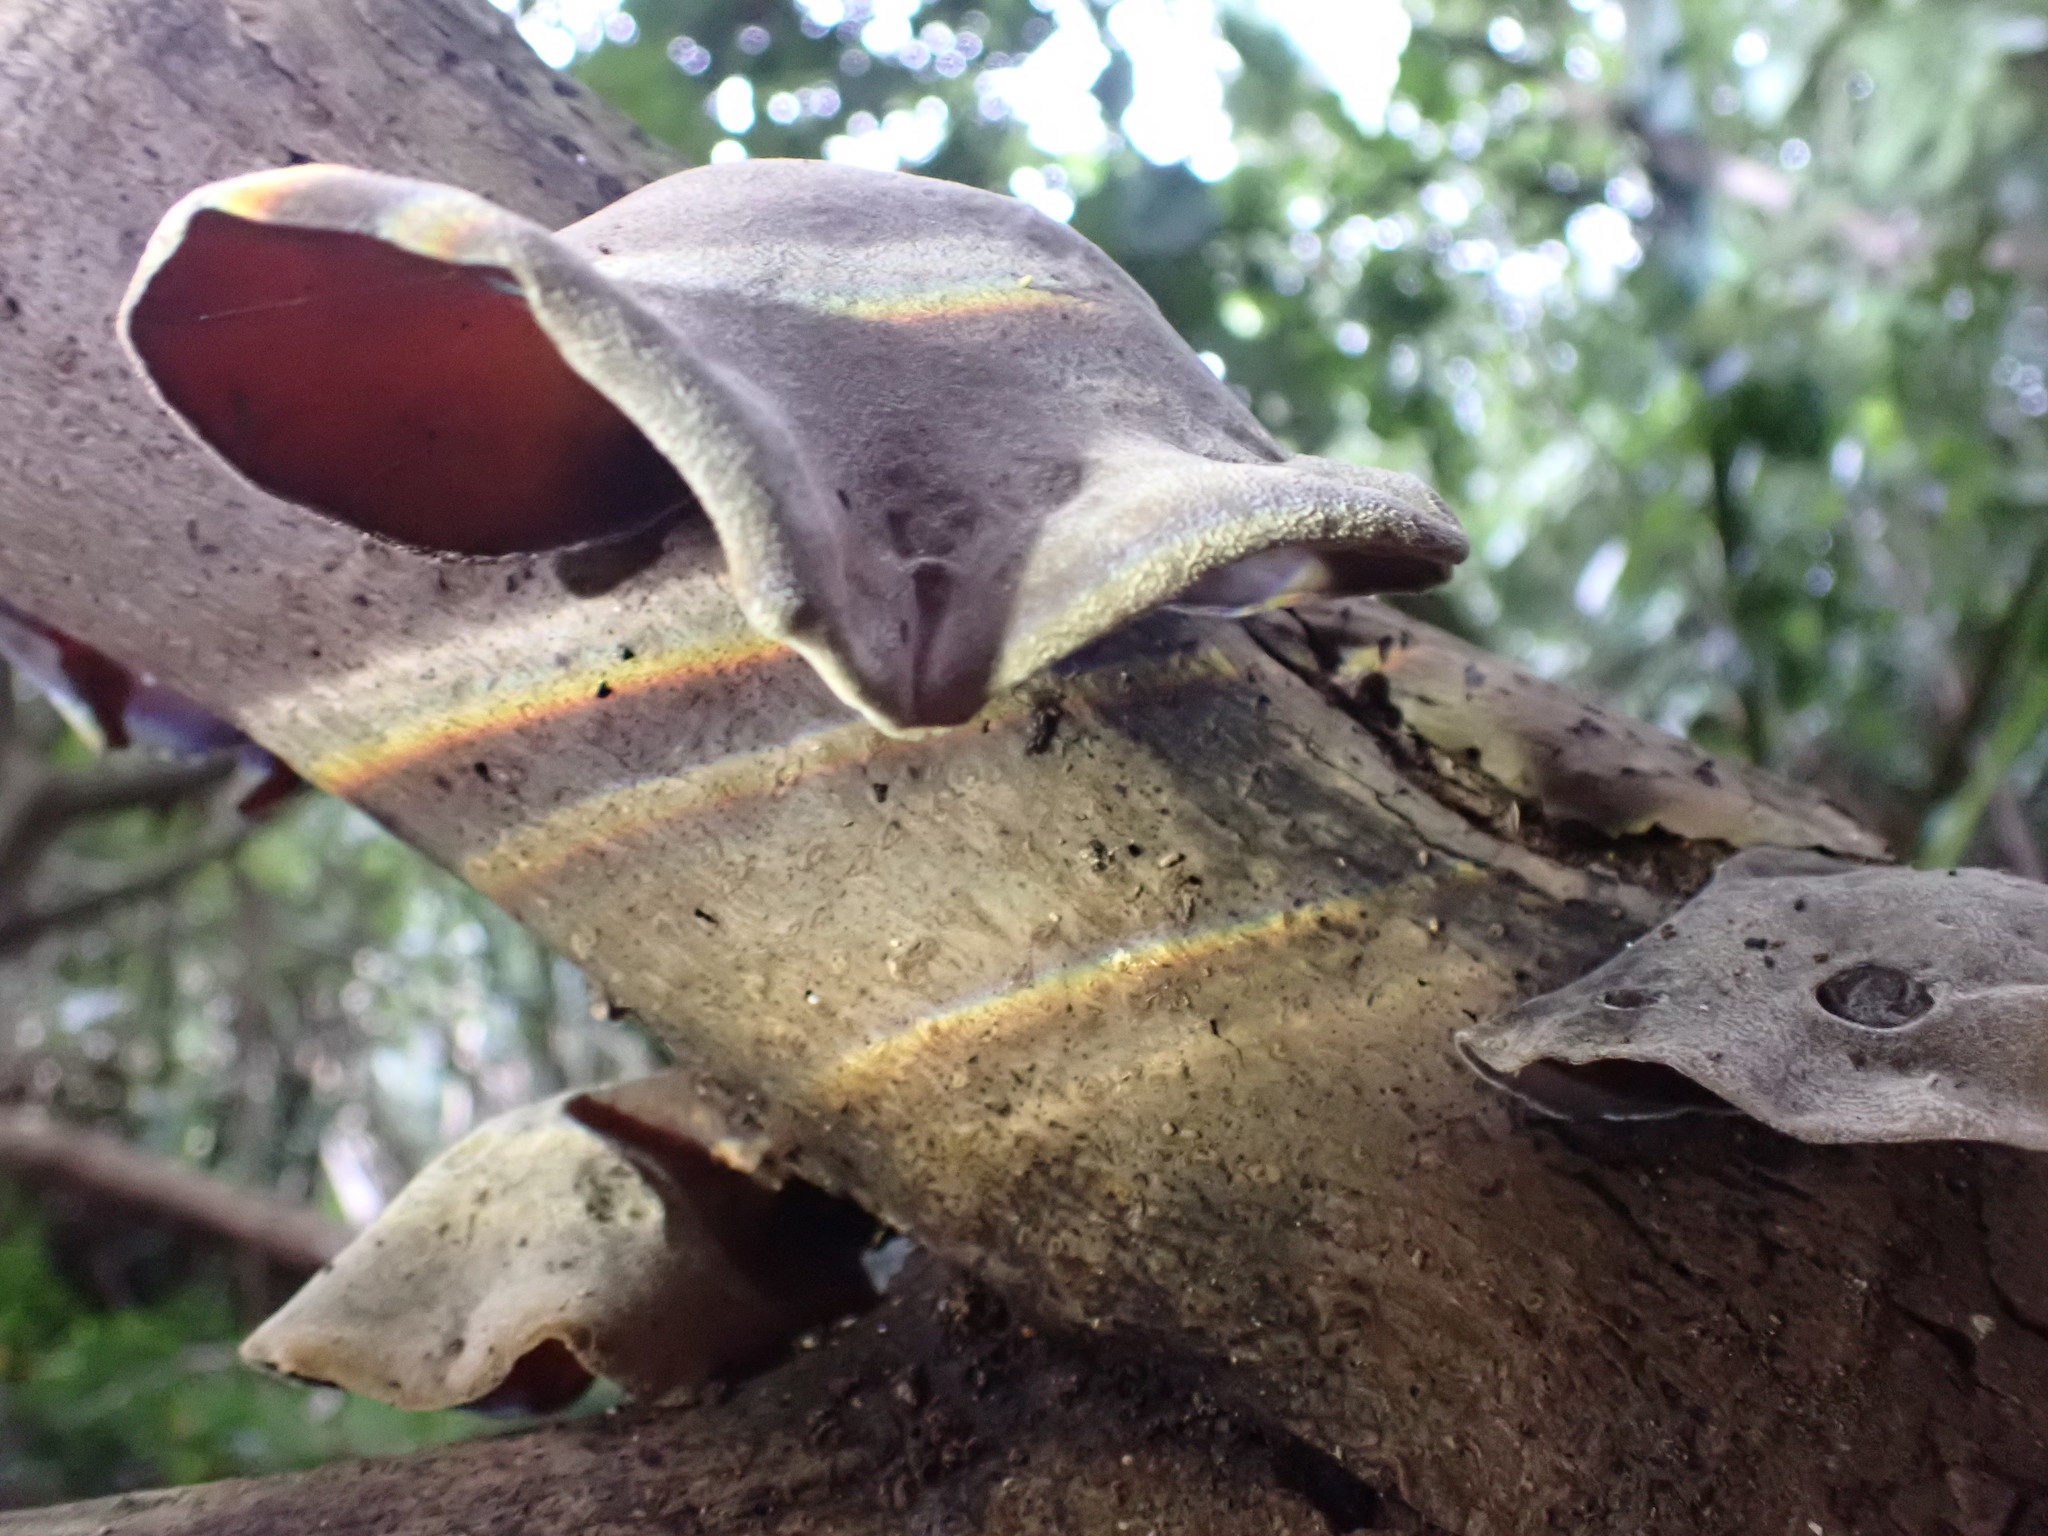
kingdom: Fungi
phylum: Basidiomycota
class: Agaricomycetes
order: Auriculariales
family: Auriculariaceae
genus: Auricularia
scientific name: Auricularia cornea
